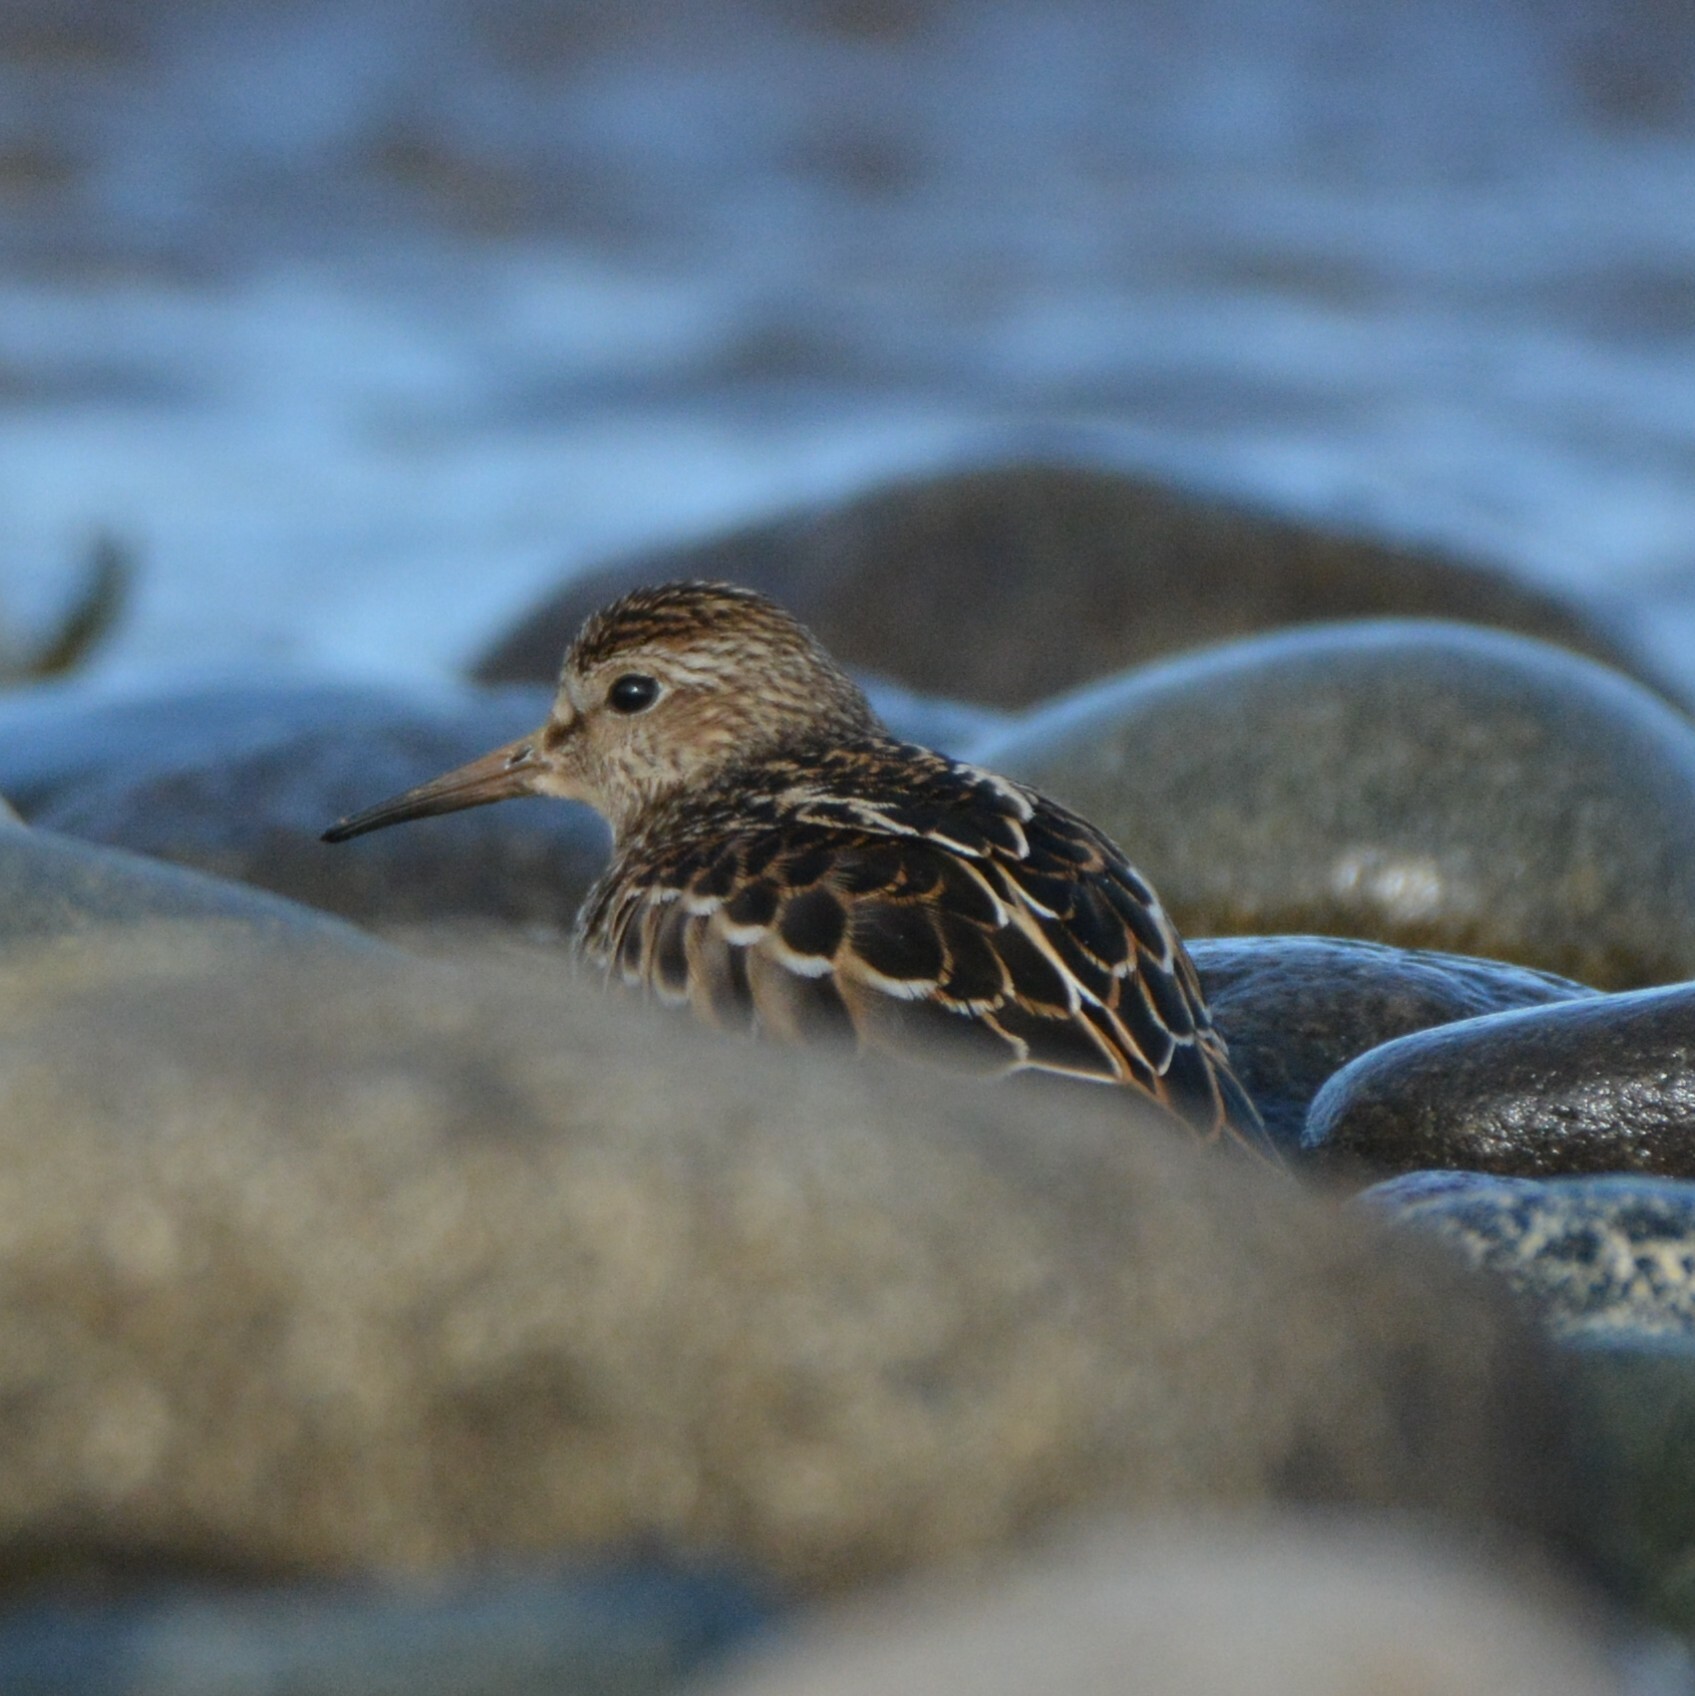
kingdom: Animalia
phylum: Chordata
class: Aves
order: Charadriiformes
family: Scolopacidae
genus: Calidris
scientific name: Calidris melanotos
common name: Pectoral sandpiper
